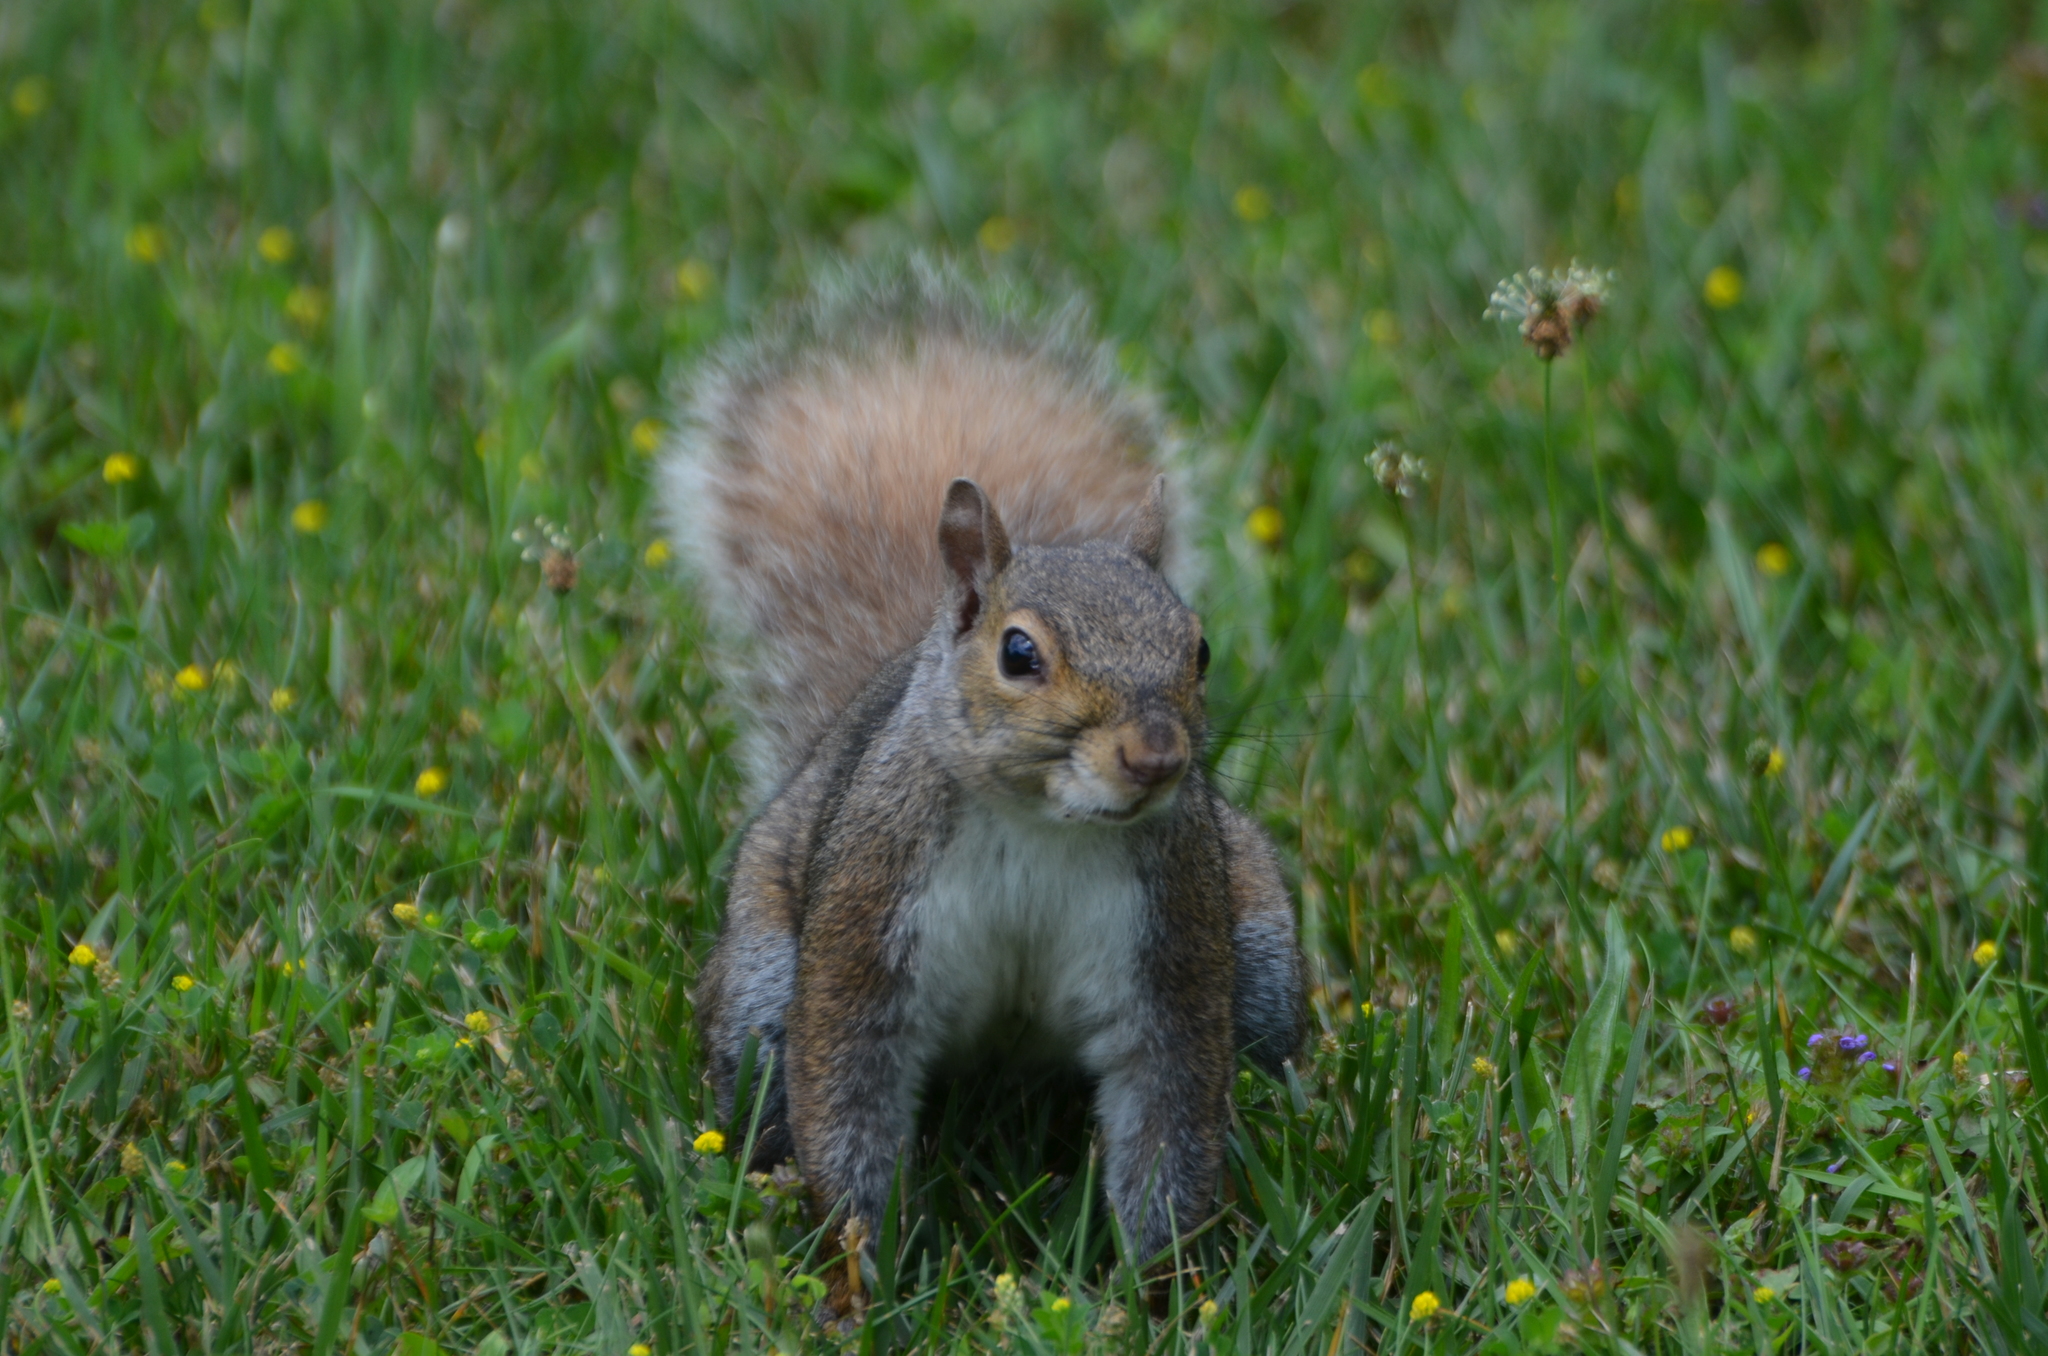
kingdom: Animalia
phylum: Chordata
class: Mammalia
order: Rodentia
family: Sciuridae
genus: Sciurus
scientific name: Sciurus carolinensis
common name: Eastern gray squirrel
